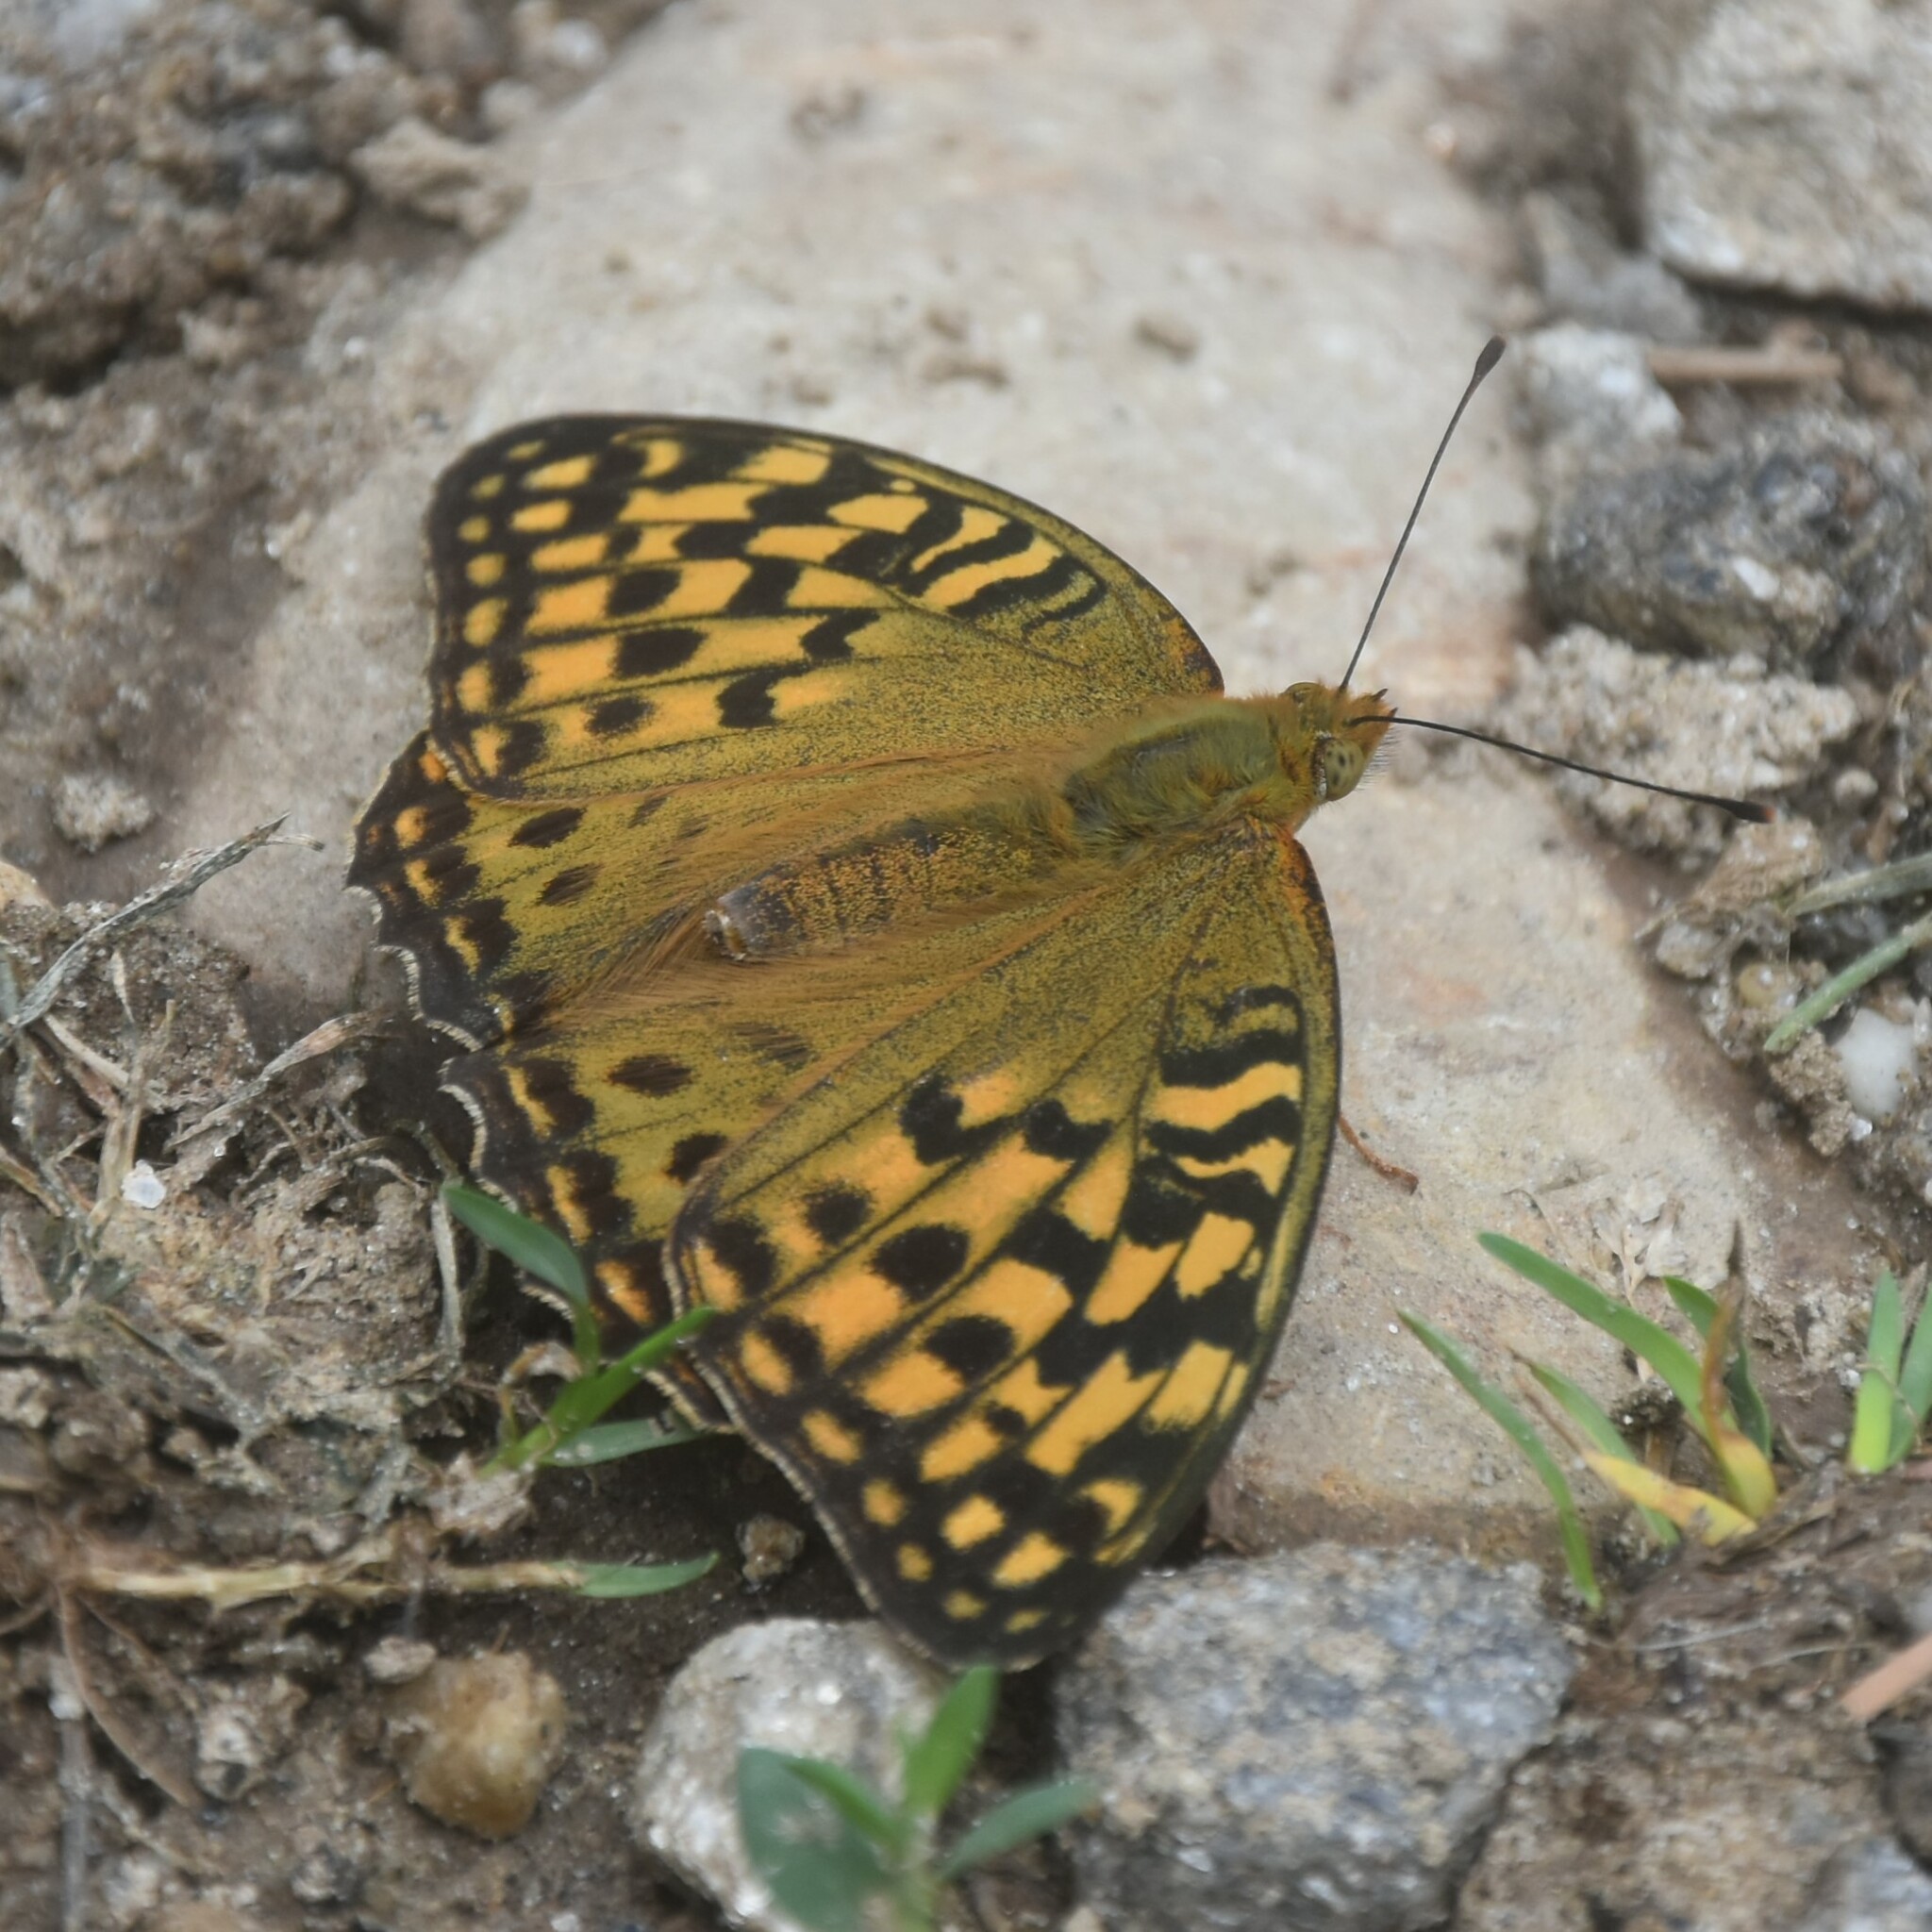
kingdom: Animalia
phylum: Arthropoda
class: Insecta
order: Lepidoptera
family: Nymphalidae
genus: Fabriciana
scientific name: Fabriciana kamala
